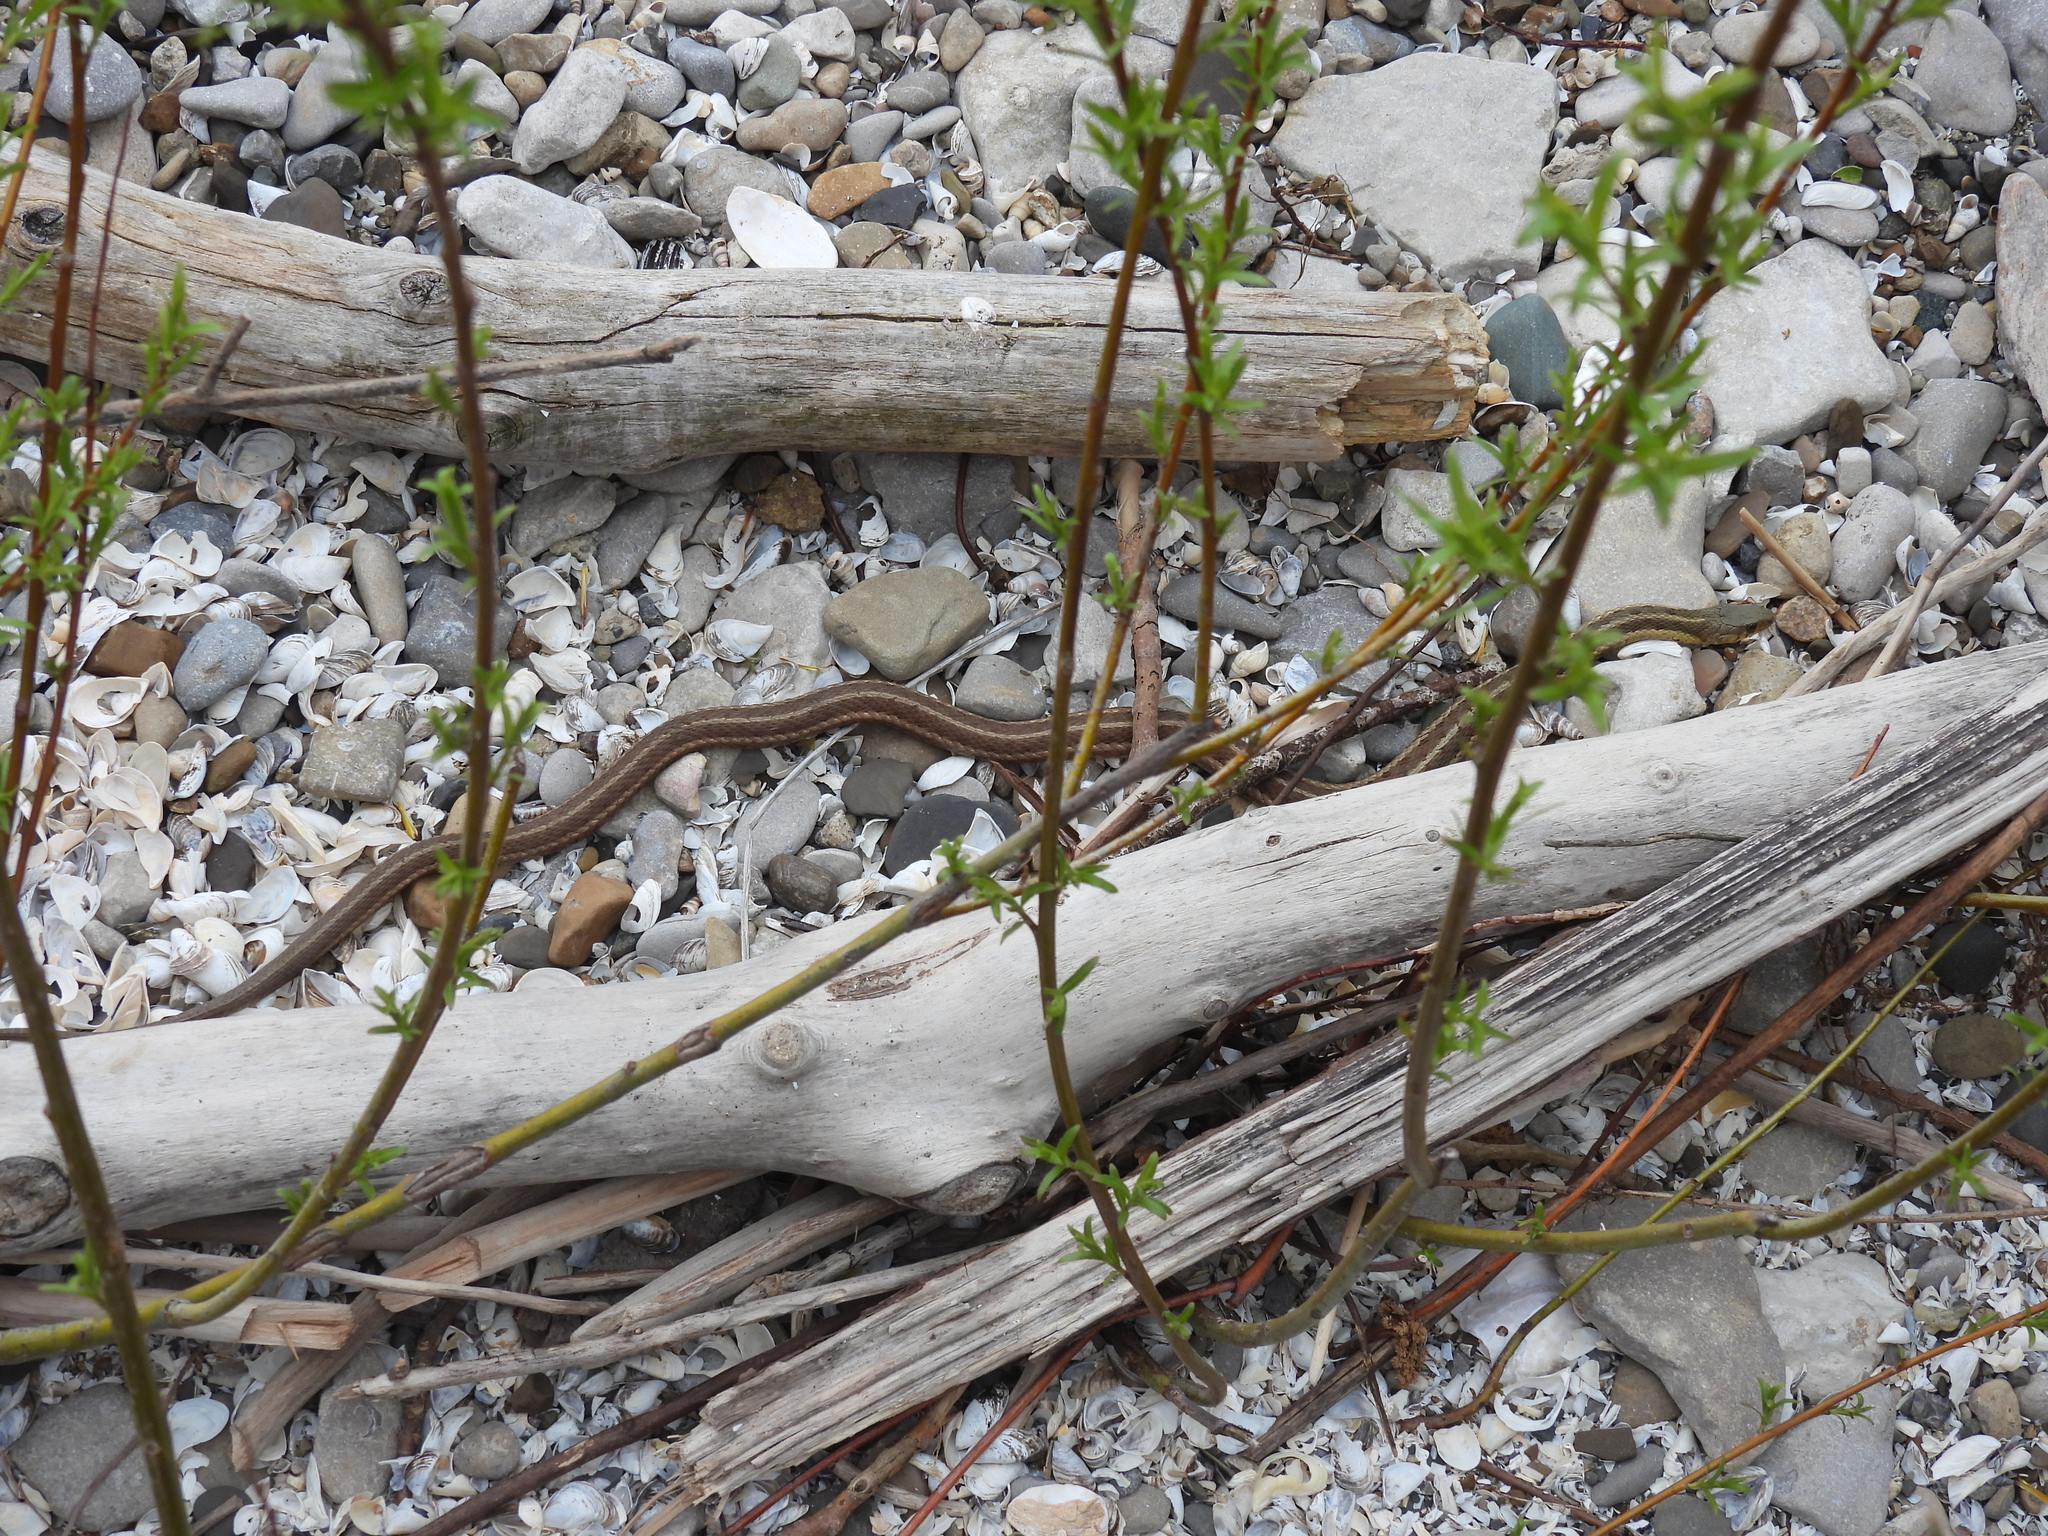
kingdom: Animalia
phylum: Chordata
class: Squamata
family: Colubridae
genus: Thamnophis
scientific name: Thamnophis sirtalis
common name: Common garter snake
